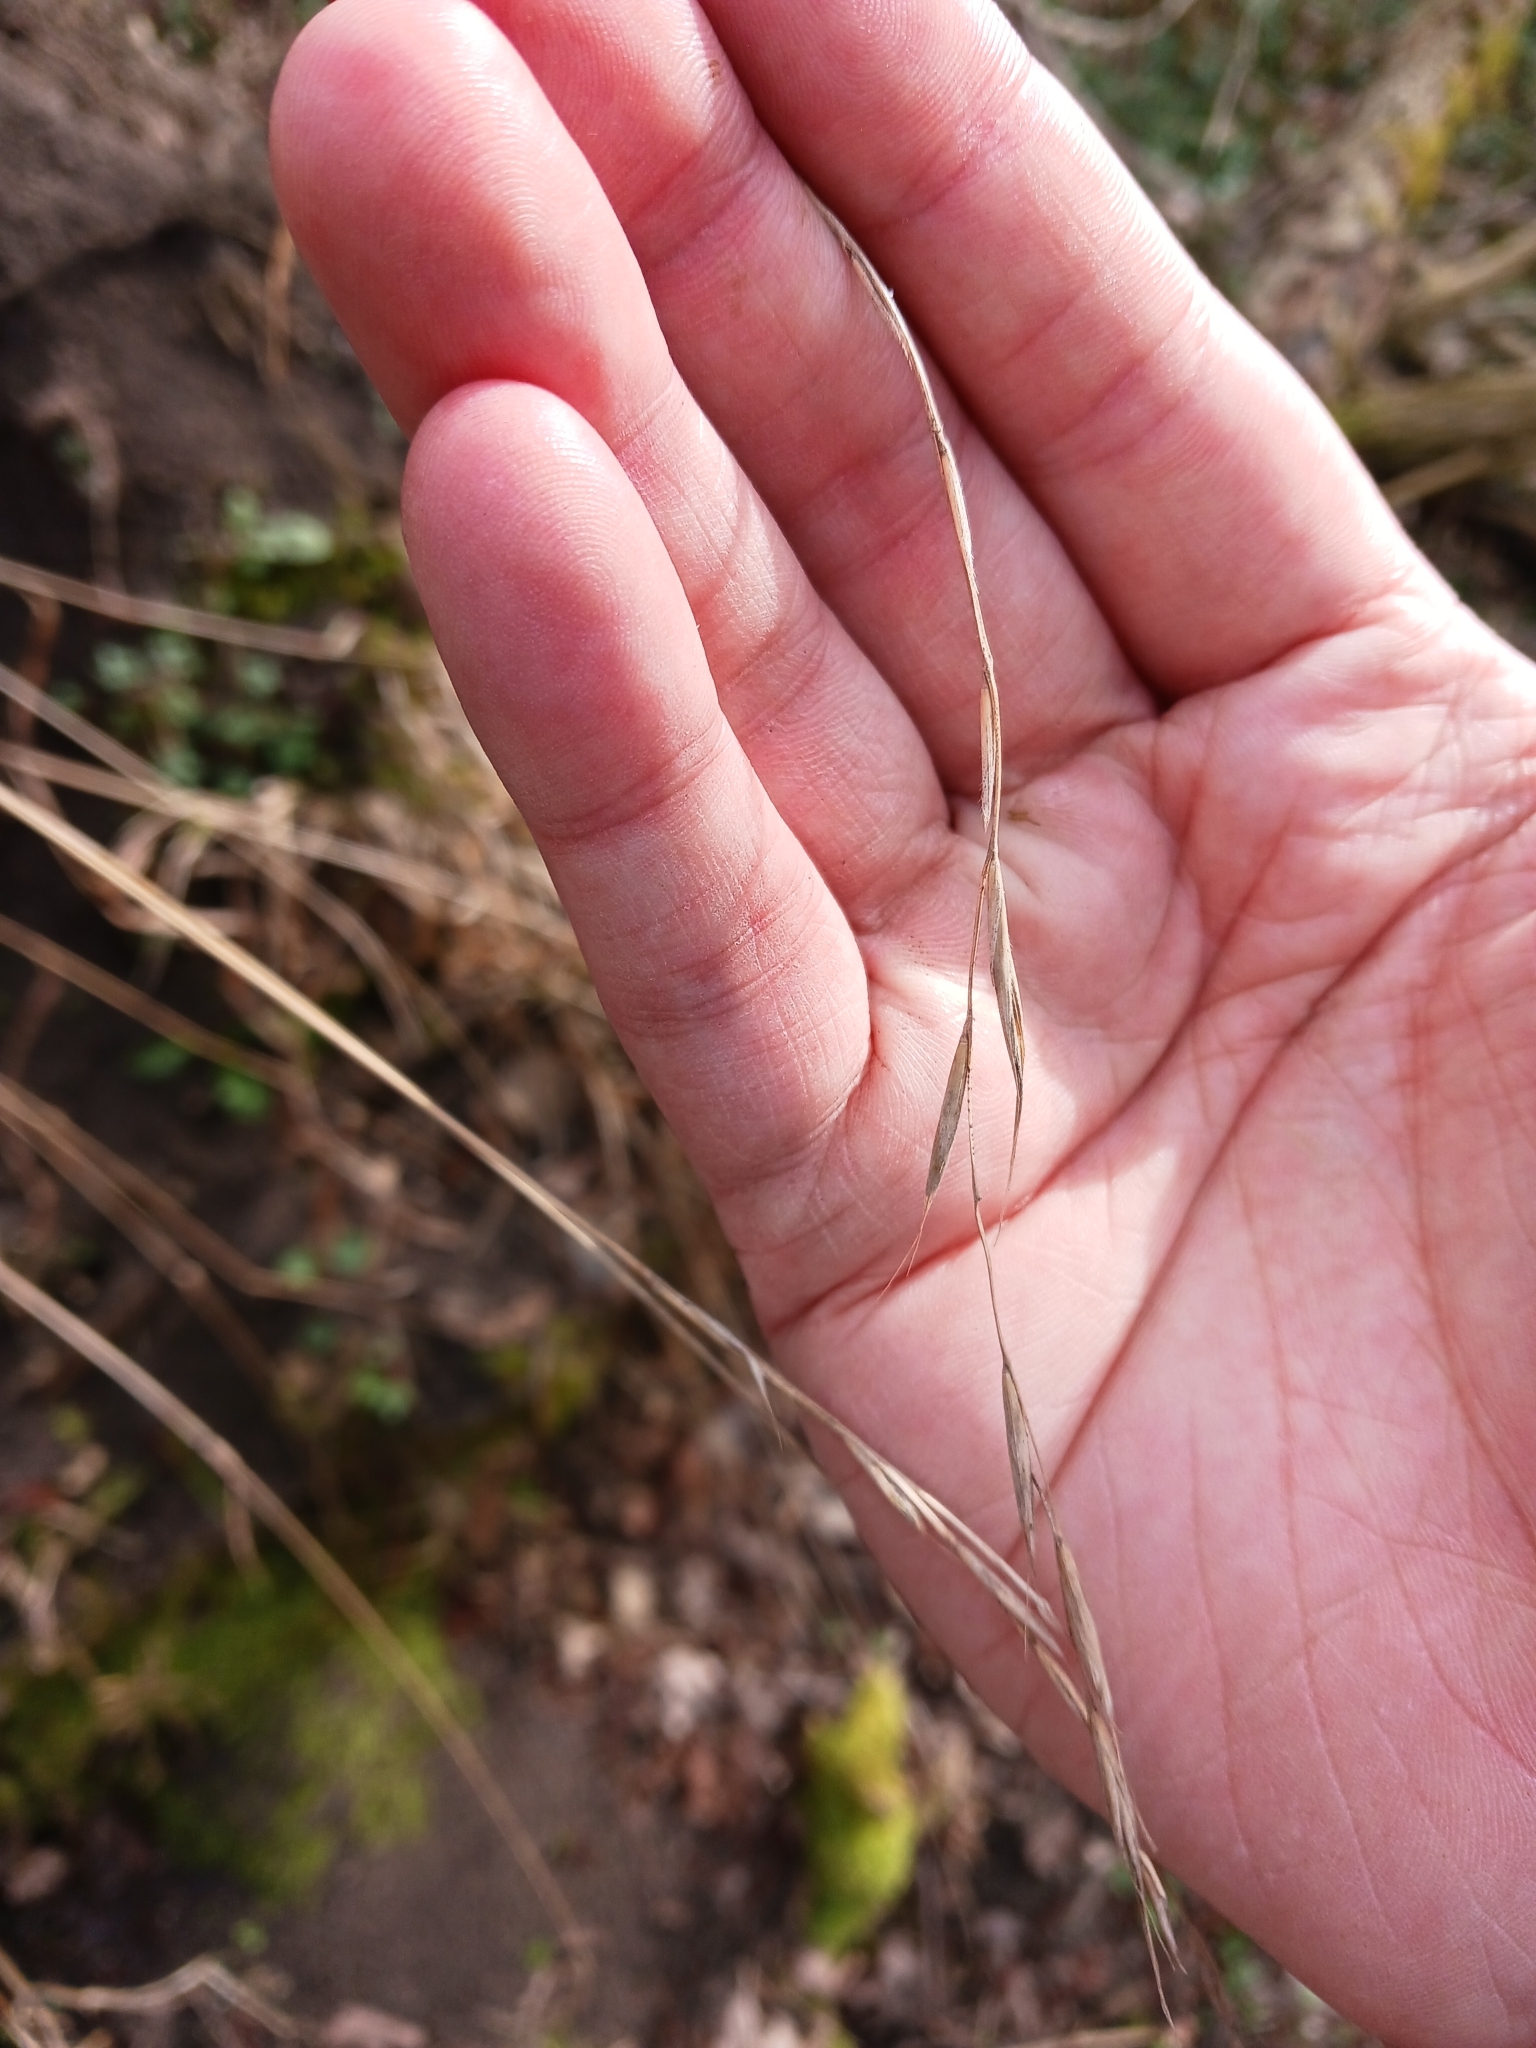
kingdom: Plantae
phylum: Tracheophyta
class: Liliopsida
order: Poales
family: Poaceae
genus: Brachypodium
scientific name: Brachypodium sylvaticum
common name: False-brome
